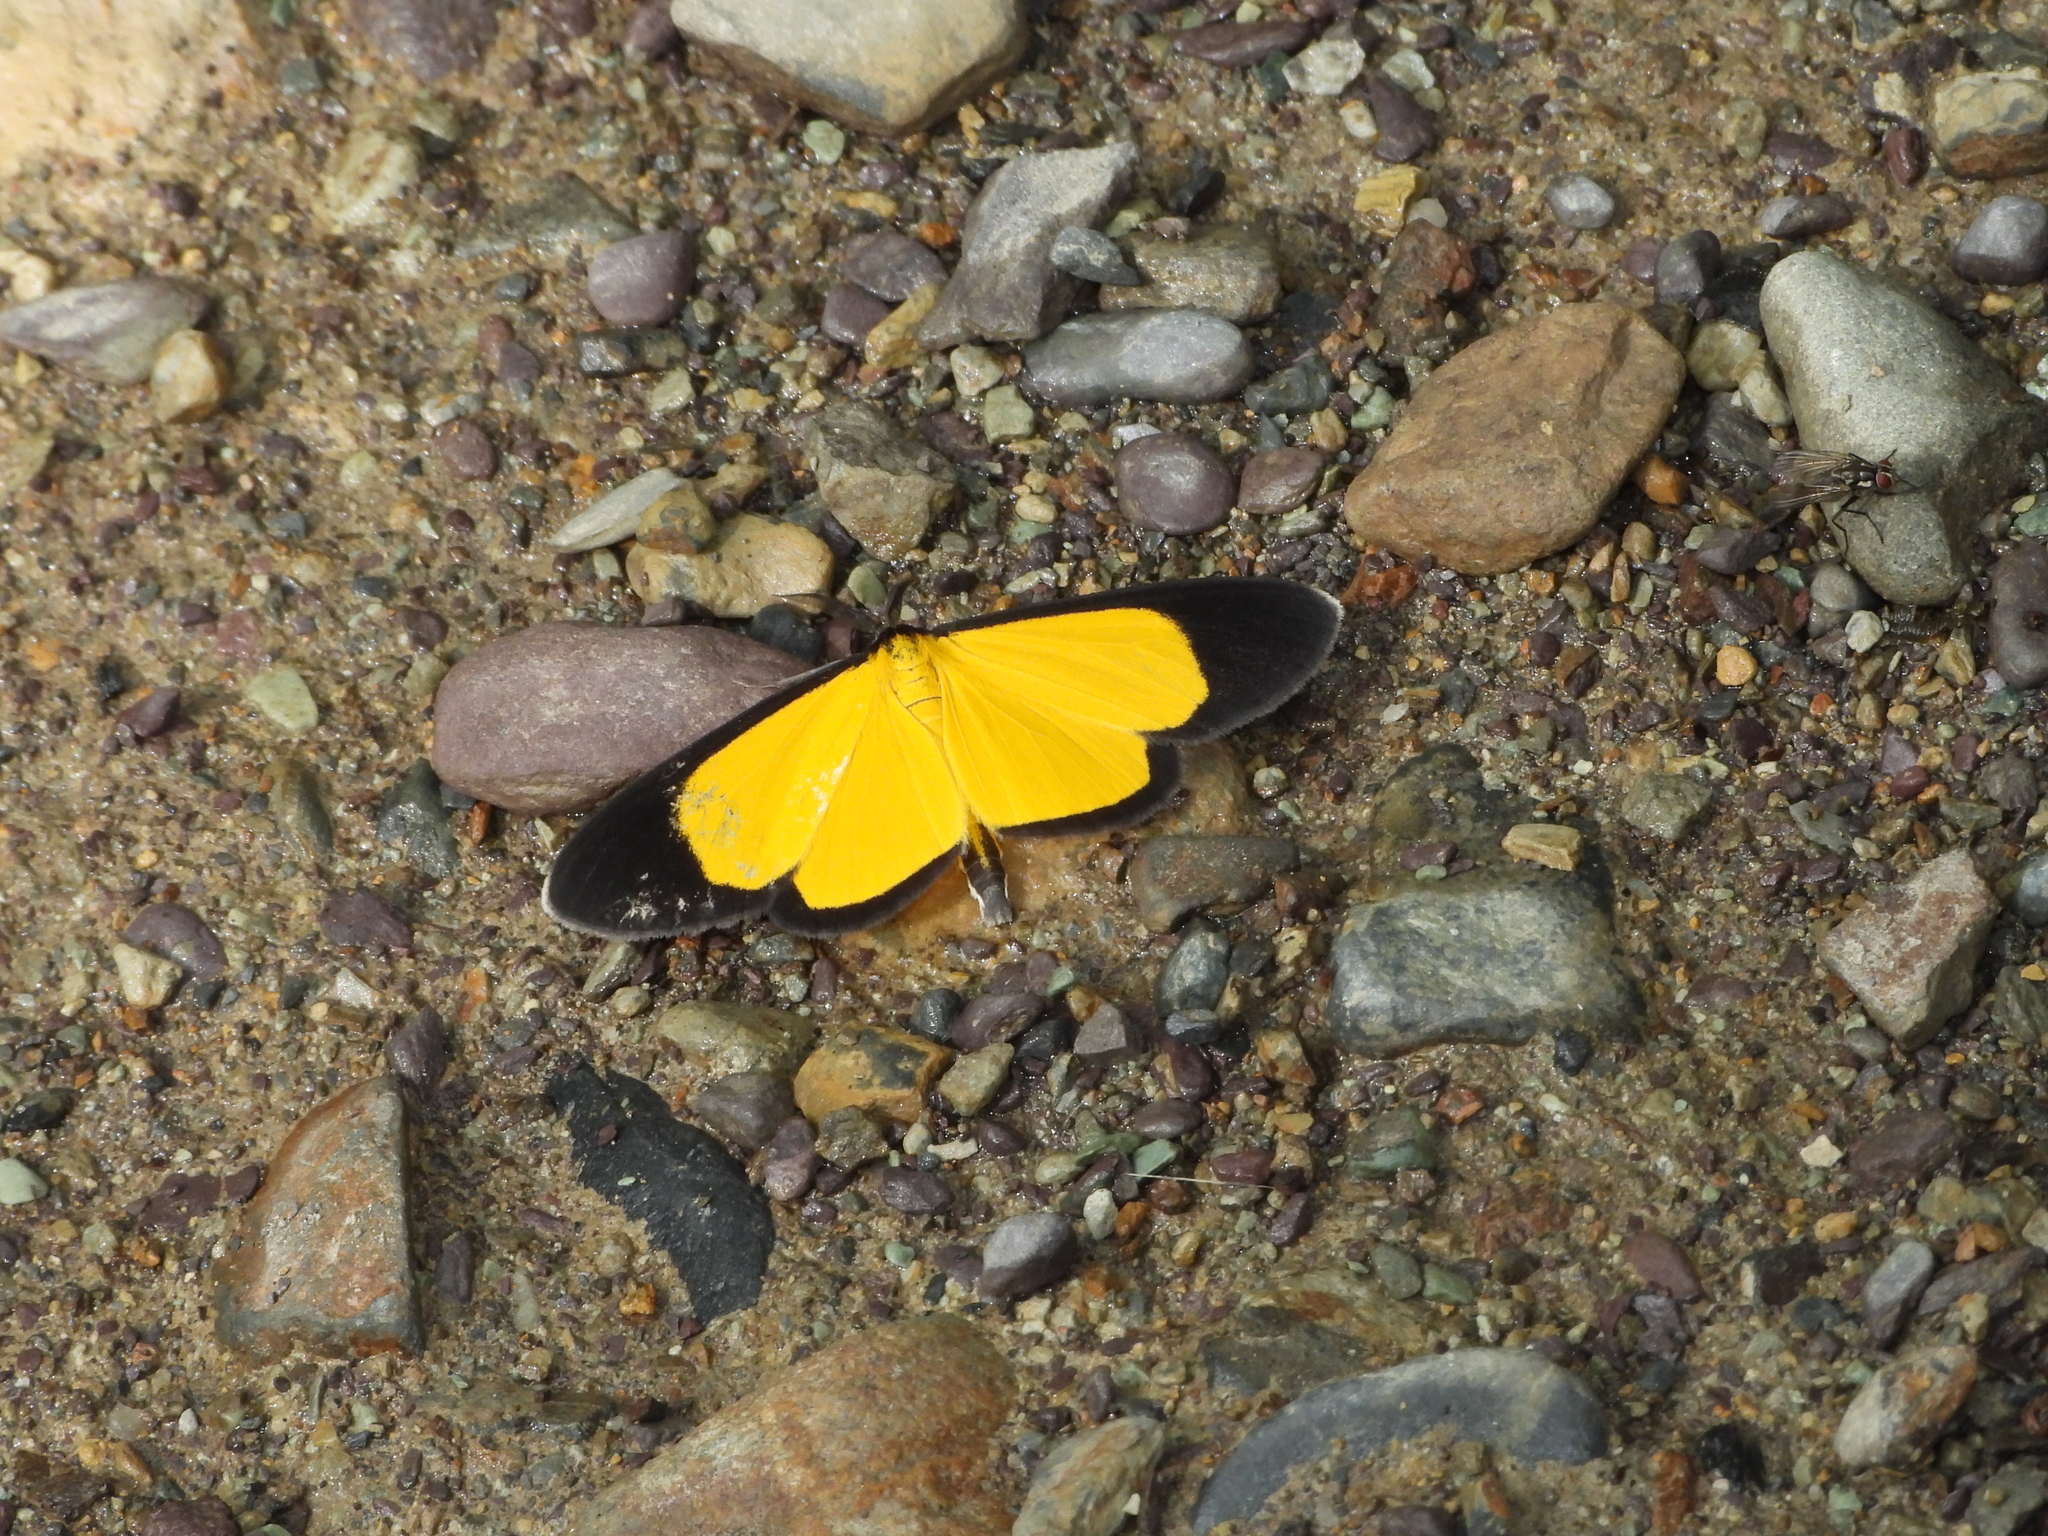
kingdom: Animalia
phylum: Arthropoda
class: Insecta
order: Lepidoptera
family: Geometridae
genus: Smicropus
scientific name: Smicropus longalis
